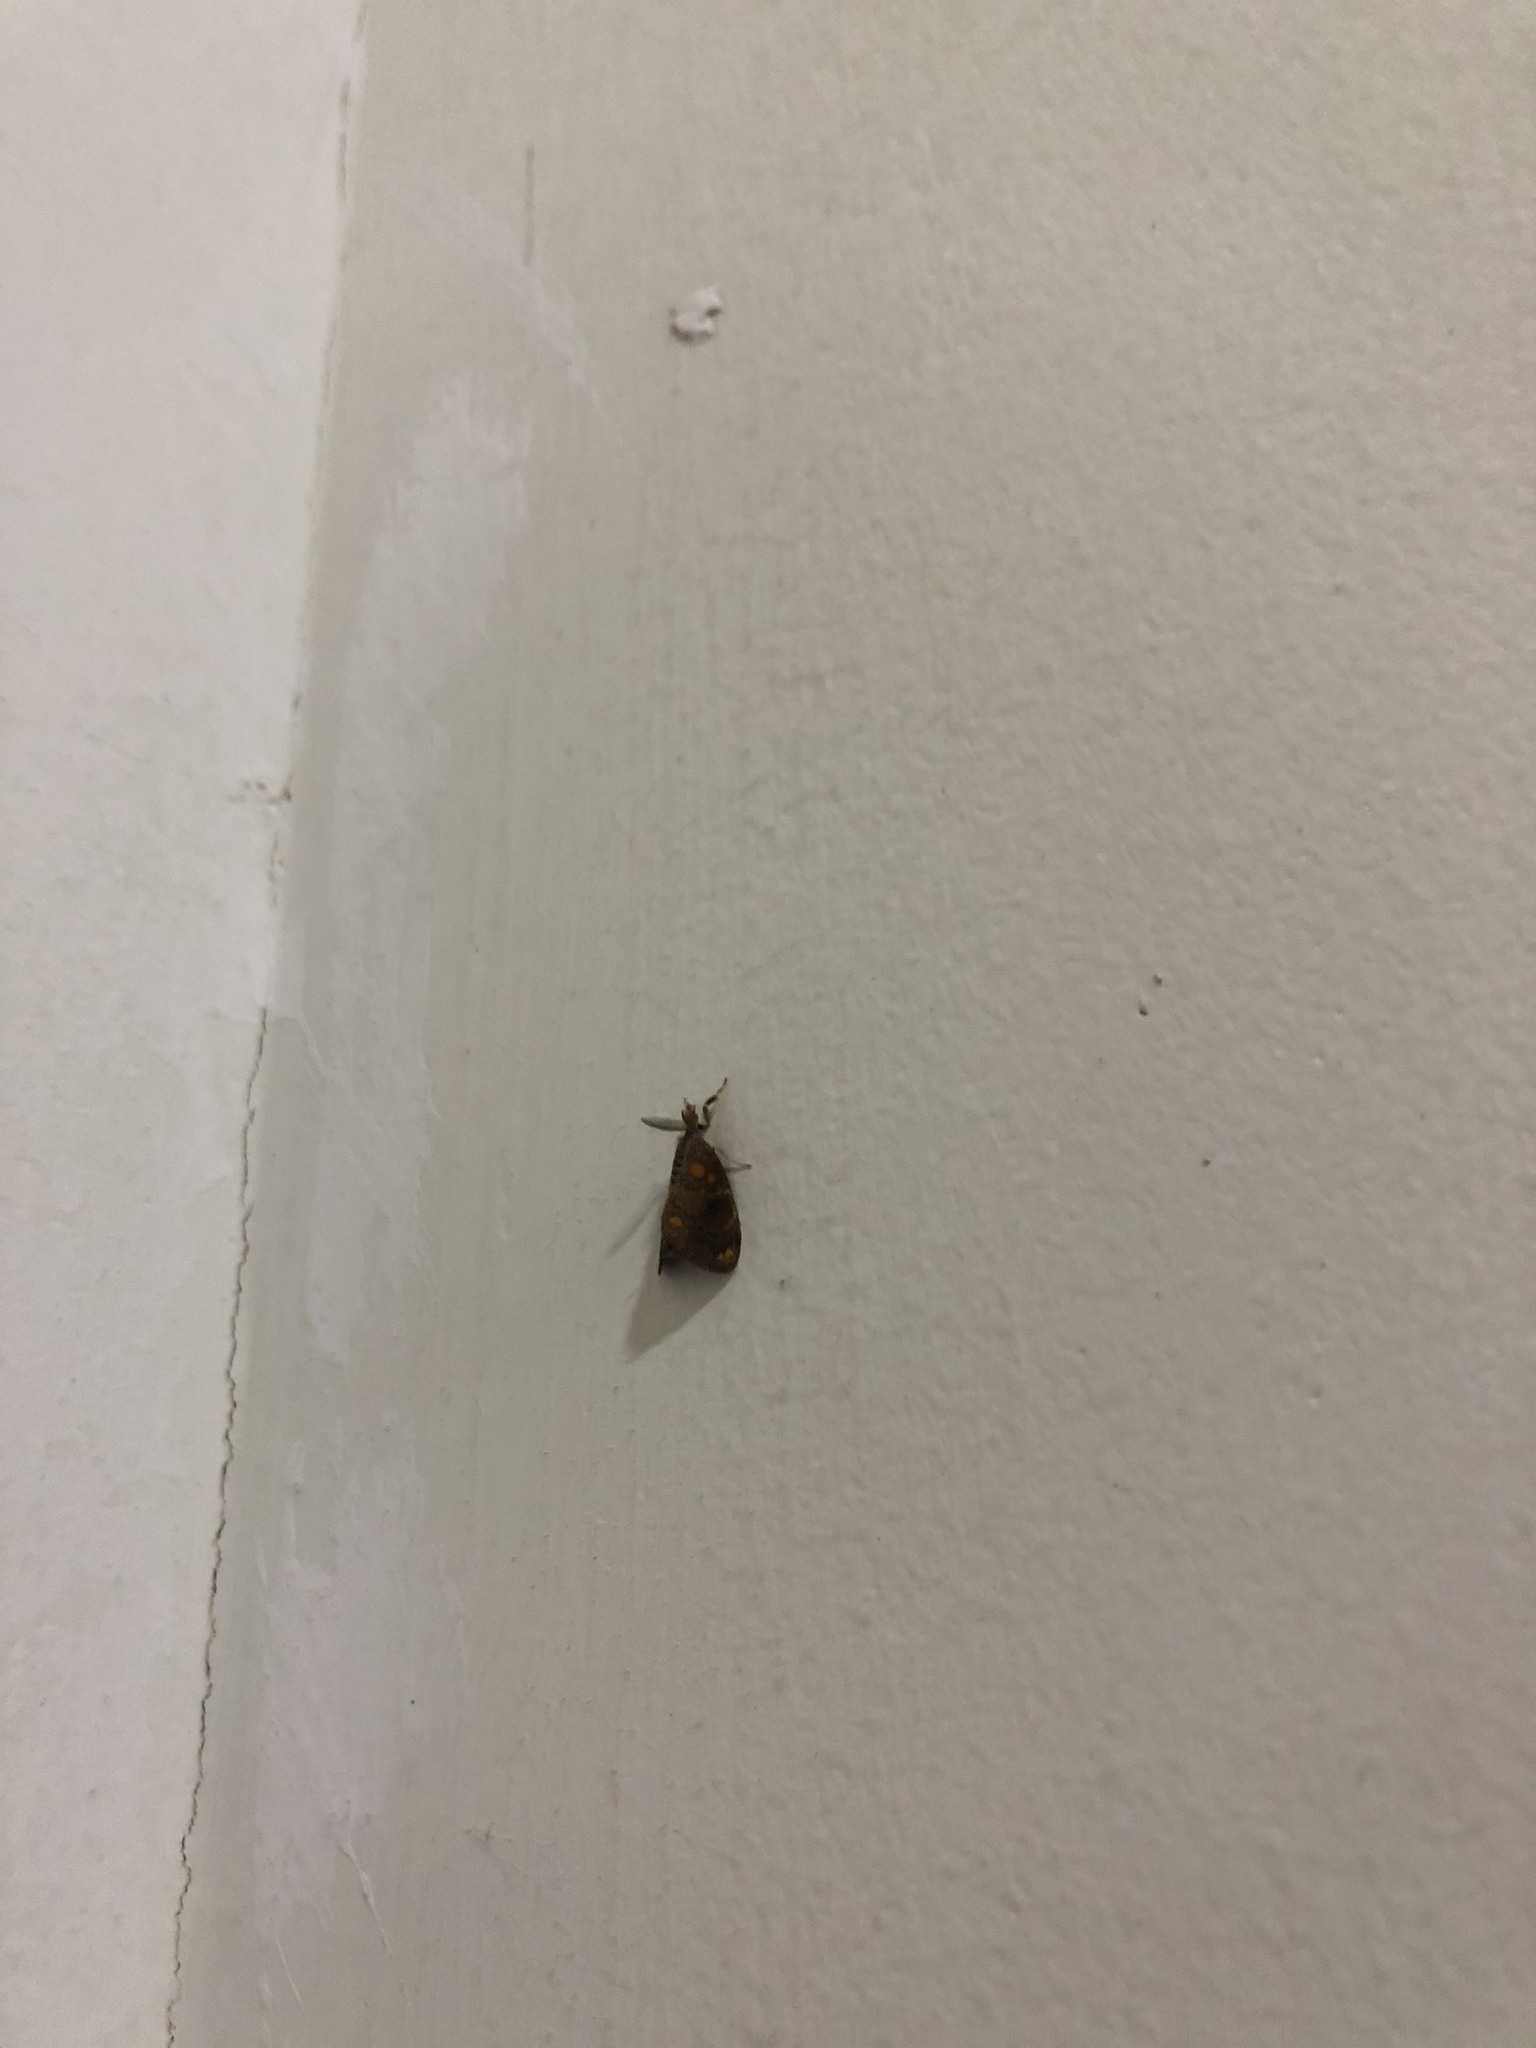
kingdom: Animalia
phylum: Arthropoda
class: Insecta
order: Lepidoptera
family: Erebidae
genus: Clethrogyna
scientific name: Clethrogyna turbata
